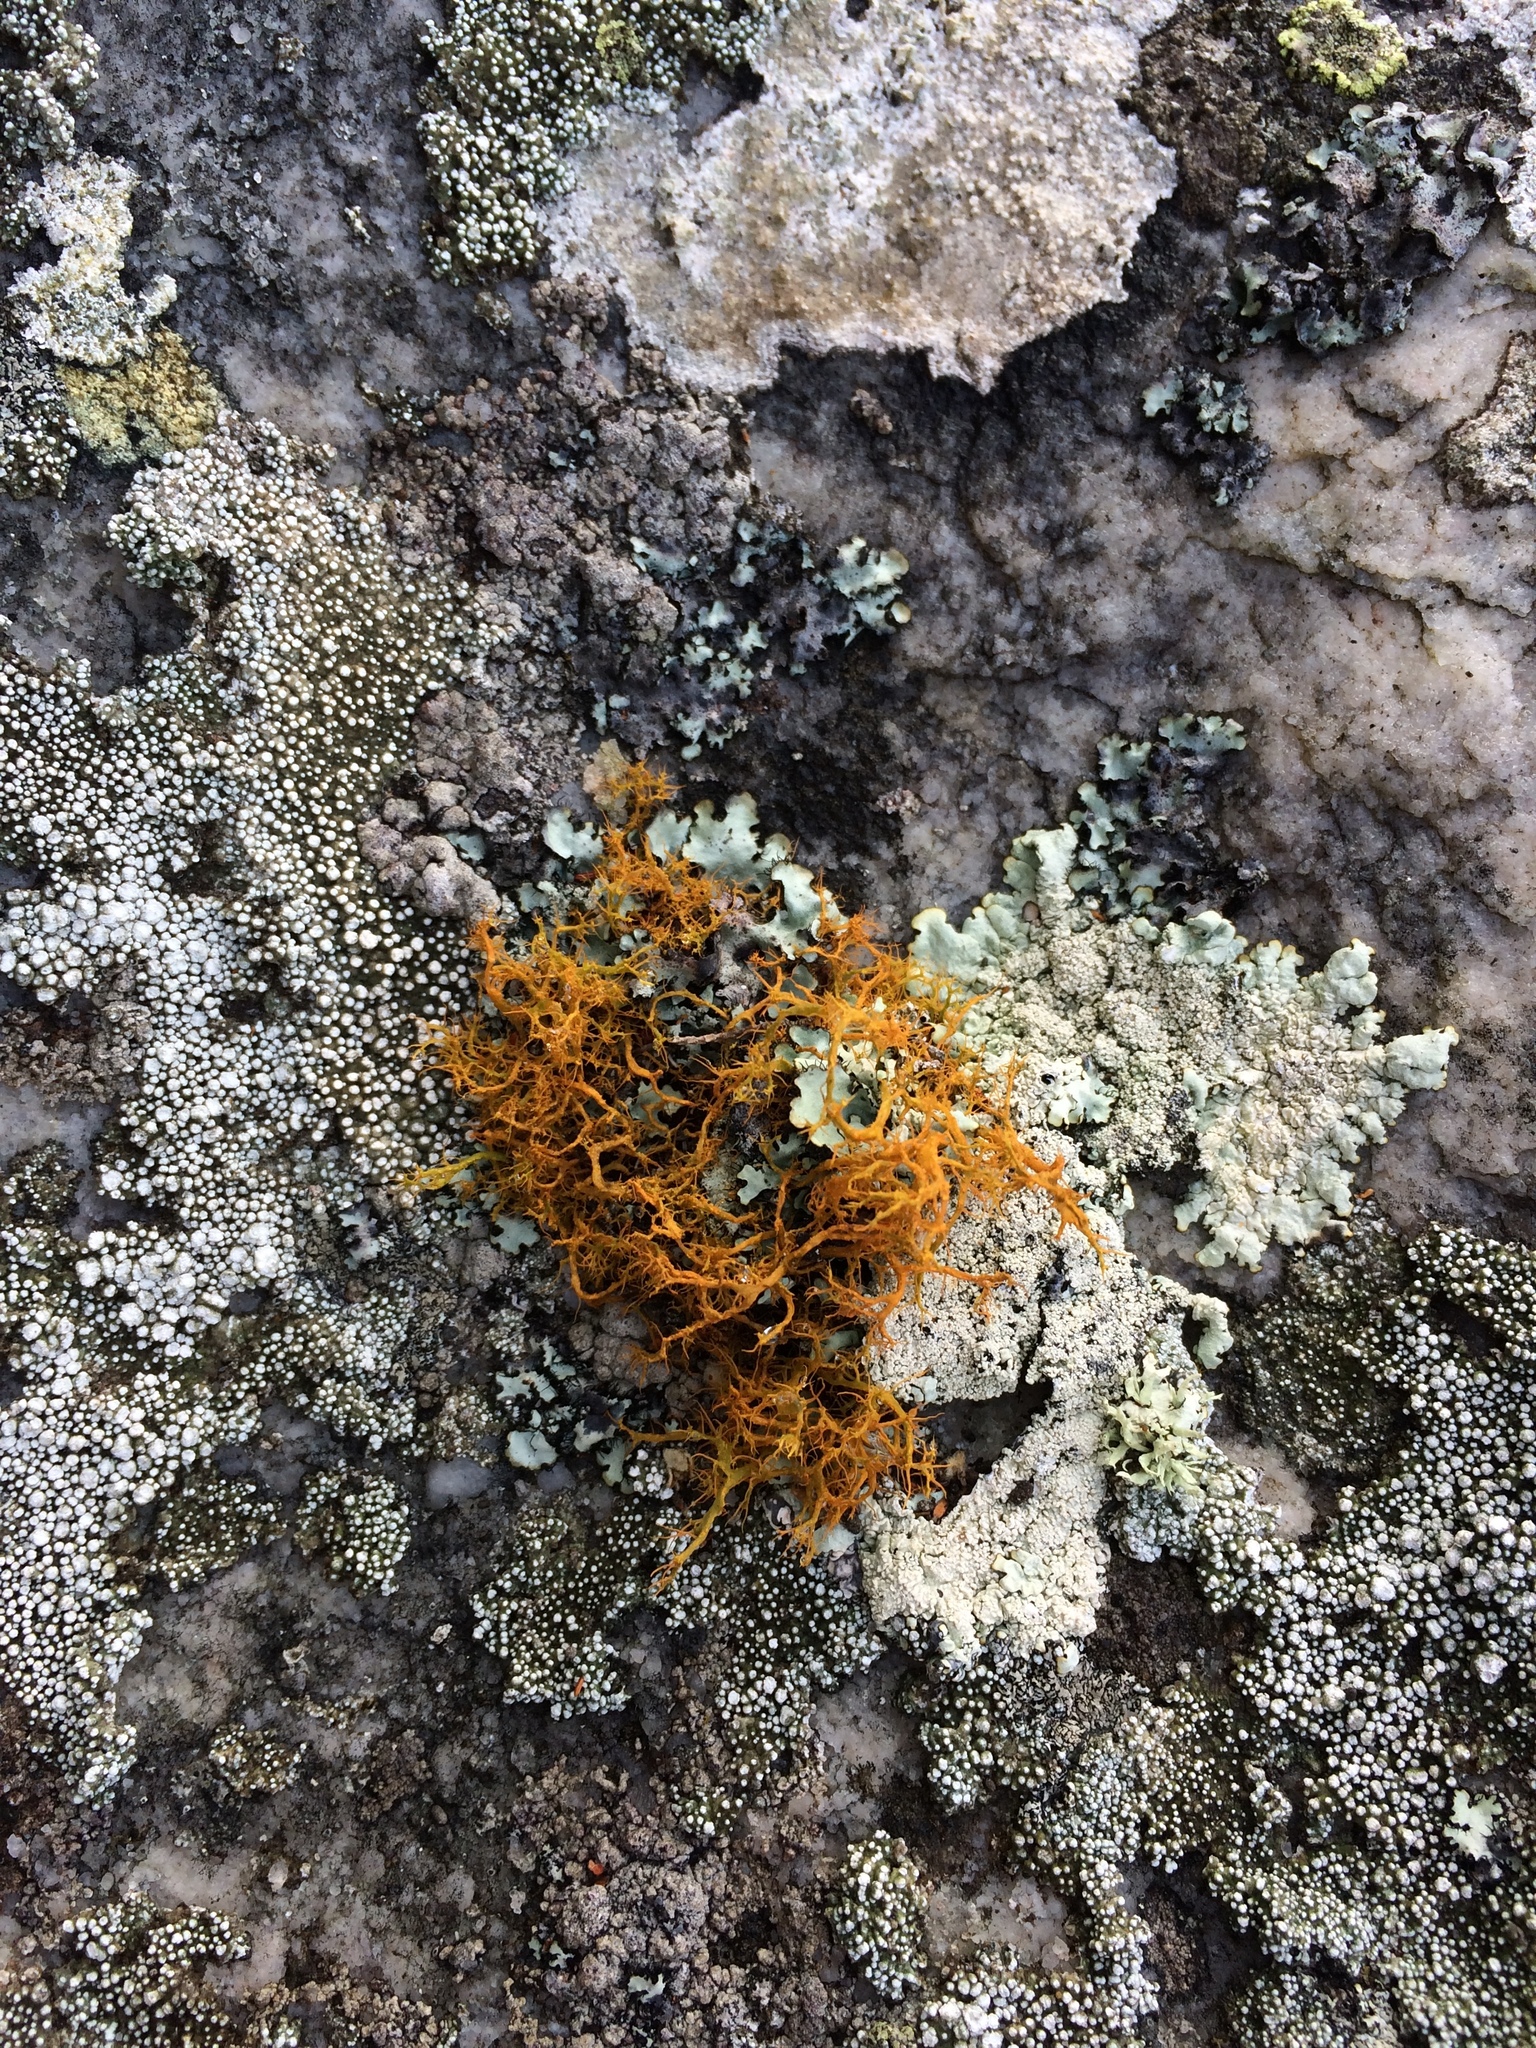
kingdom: Fungi
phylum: Ascomycota
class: Lecanoromycetes
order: Teloschistales
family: Teloschistaceae
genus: Teloschistes
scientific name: Teloschistes inflatus
